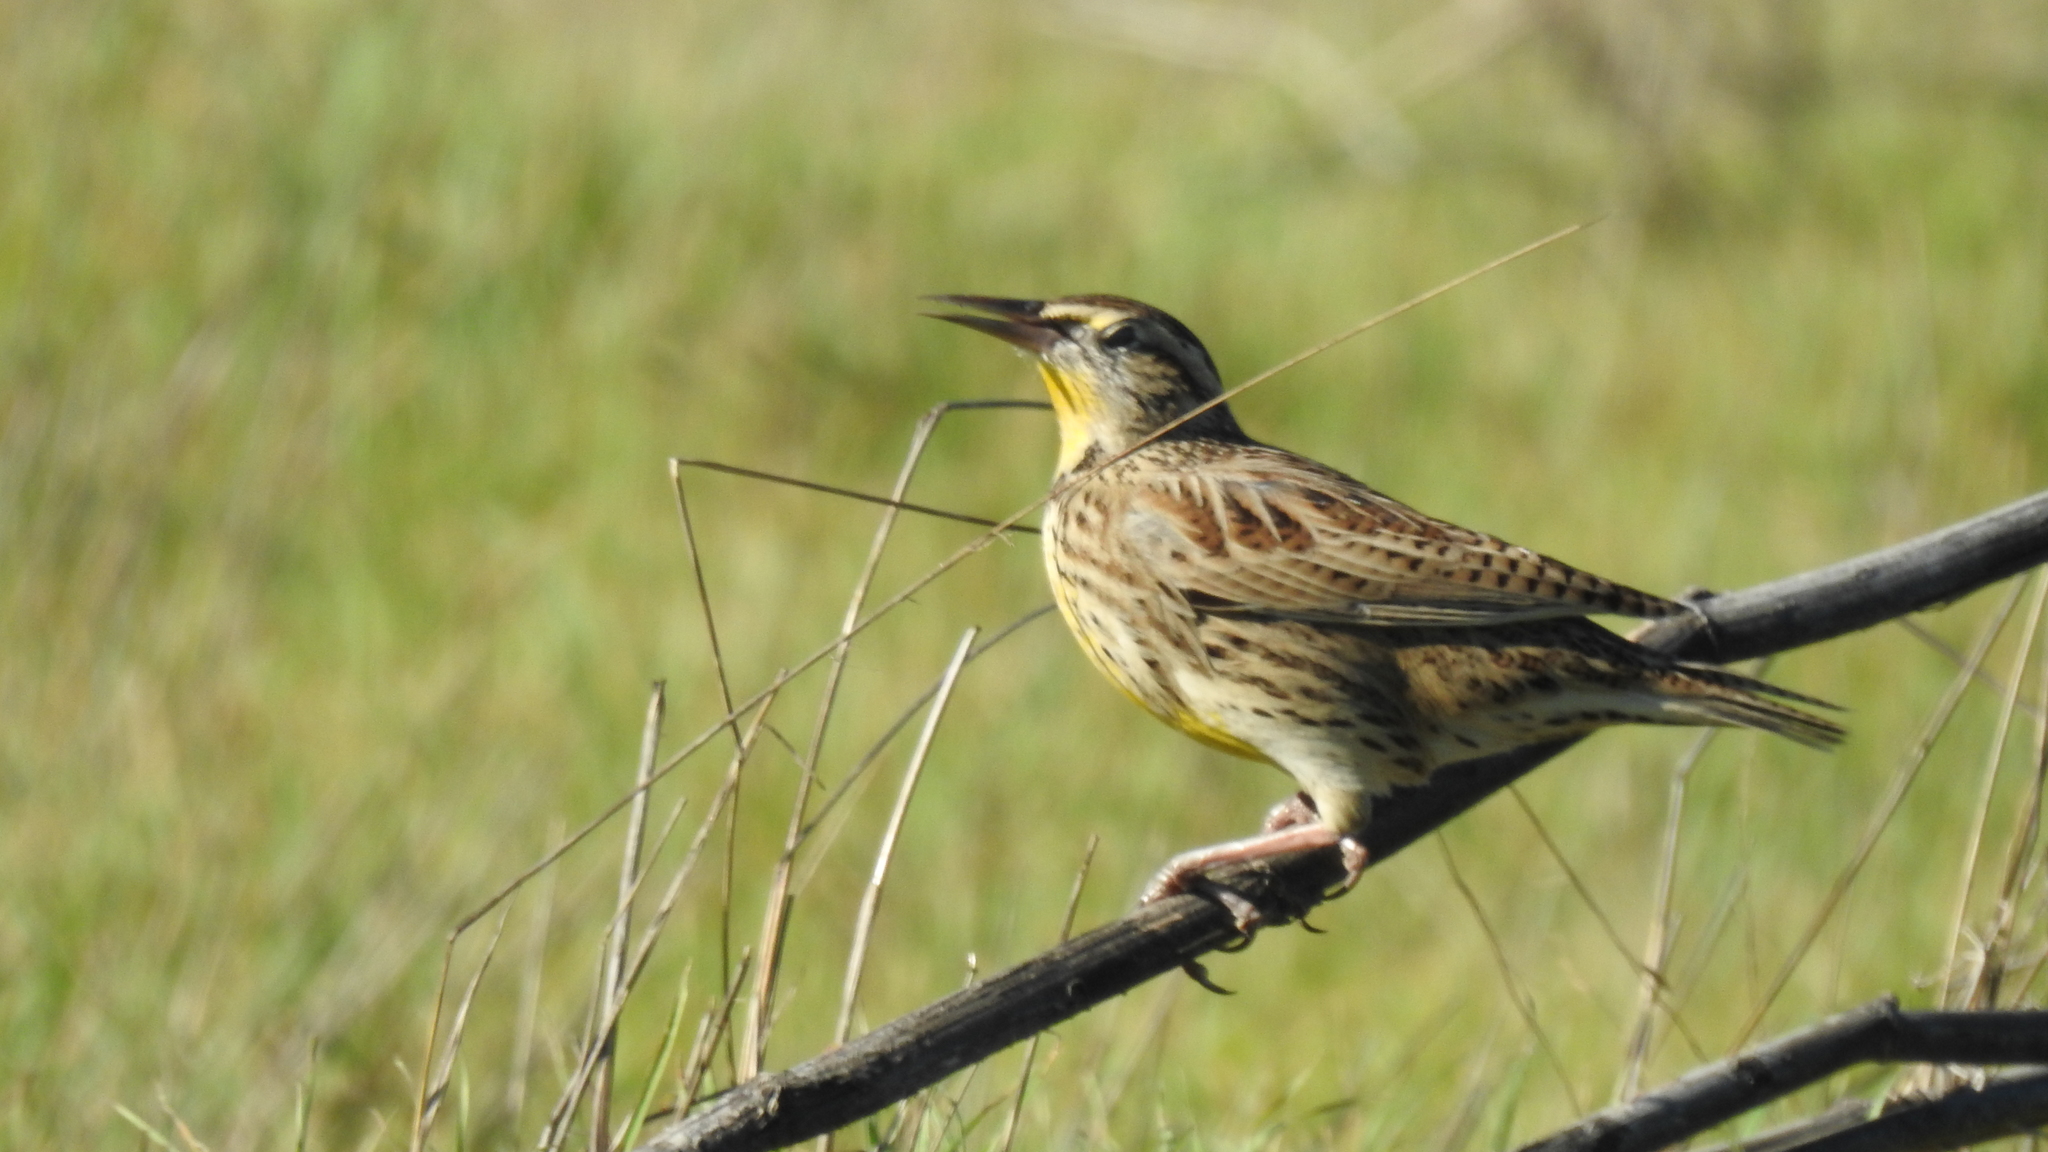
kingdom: Animalia
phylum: Chordata
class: Aves
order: Passeriformes
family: Icteridae
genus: Sturnella
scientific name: Sturnella neglecta
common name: Western meadowlark
